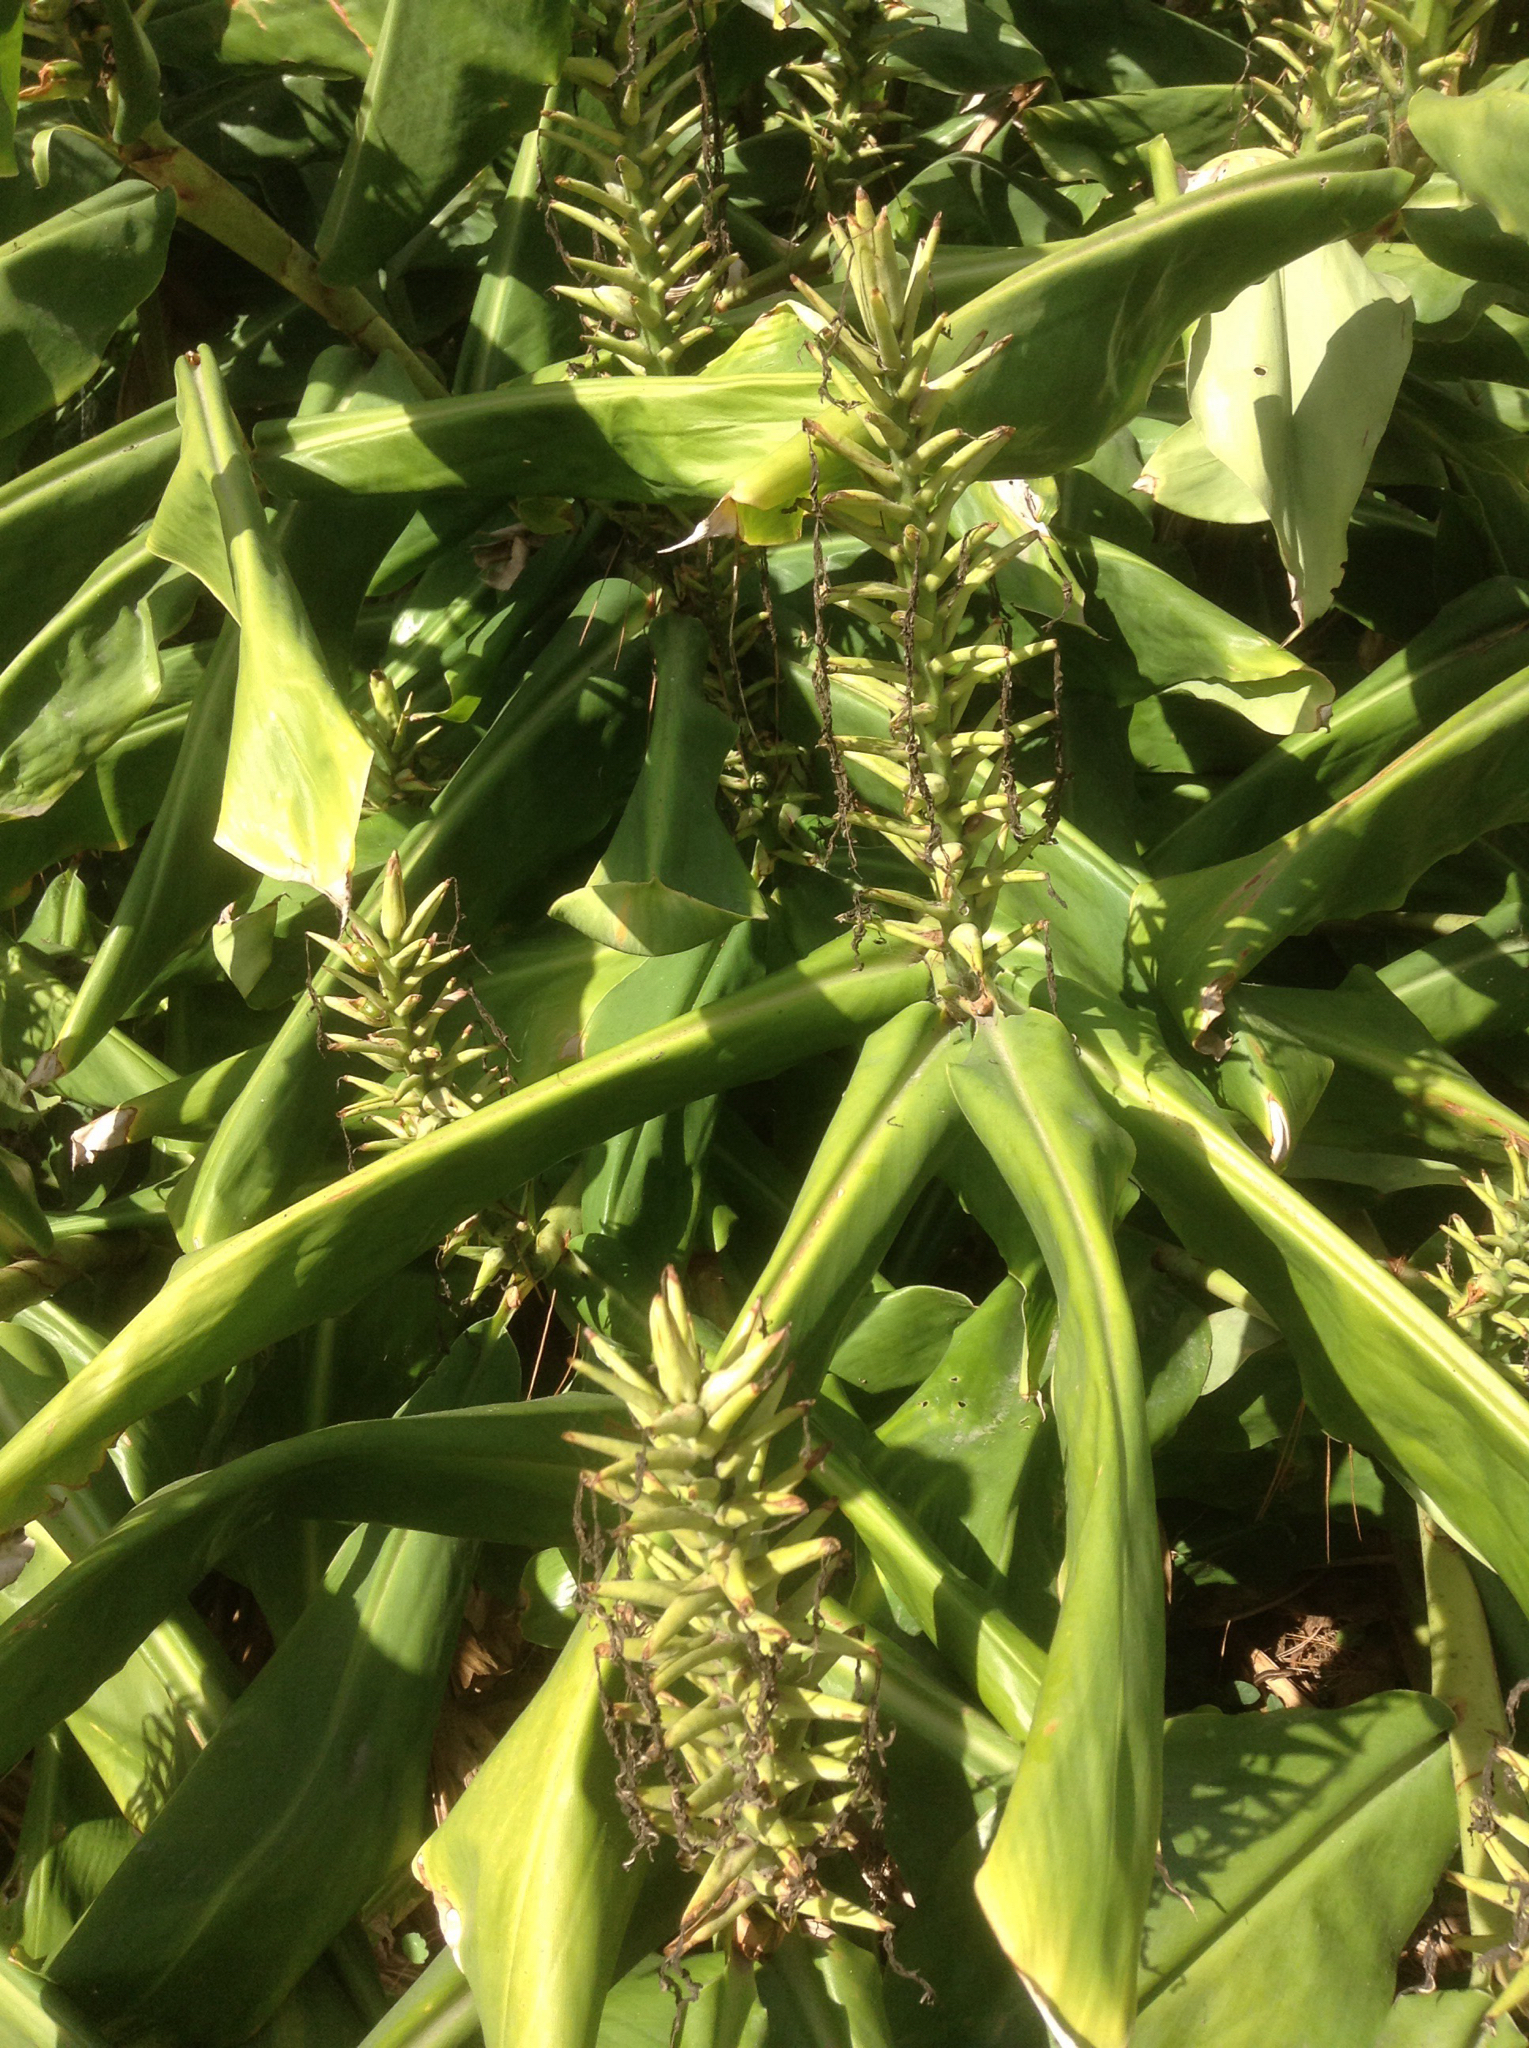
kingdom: Plantae
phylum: Tracheophyta
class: Liliopsida
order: Zingiberales
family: Zingiberaceae
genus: Hedychium
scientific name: Hedychium gardnerianum
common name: Himalayan ginger
